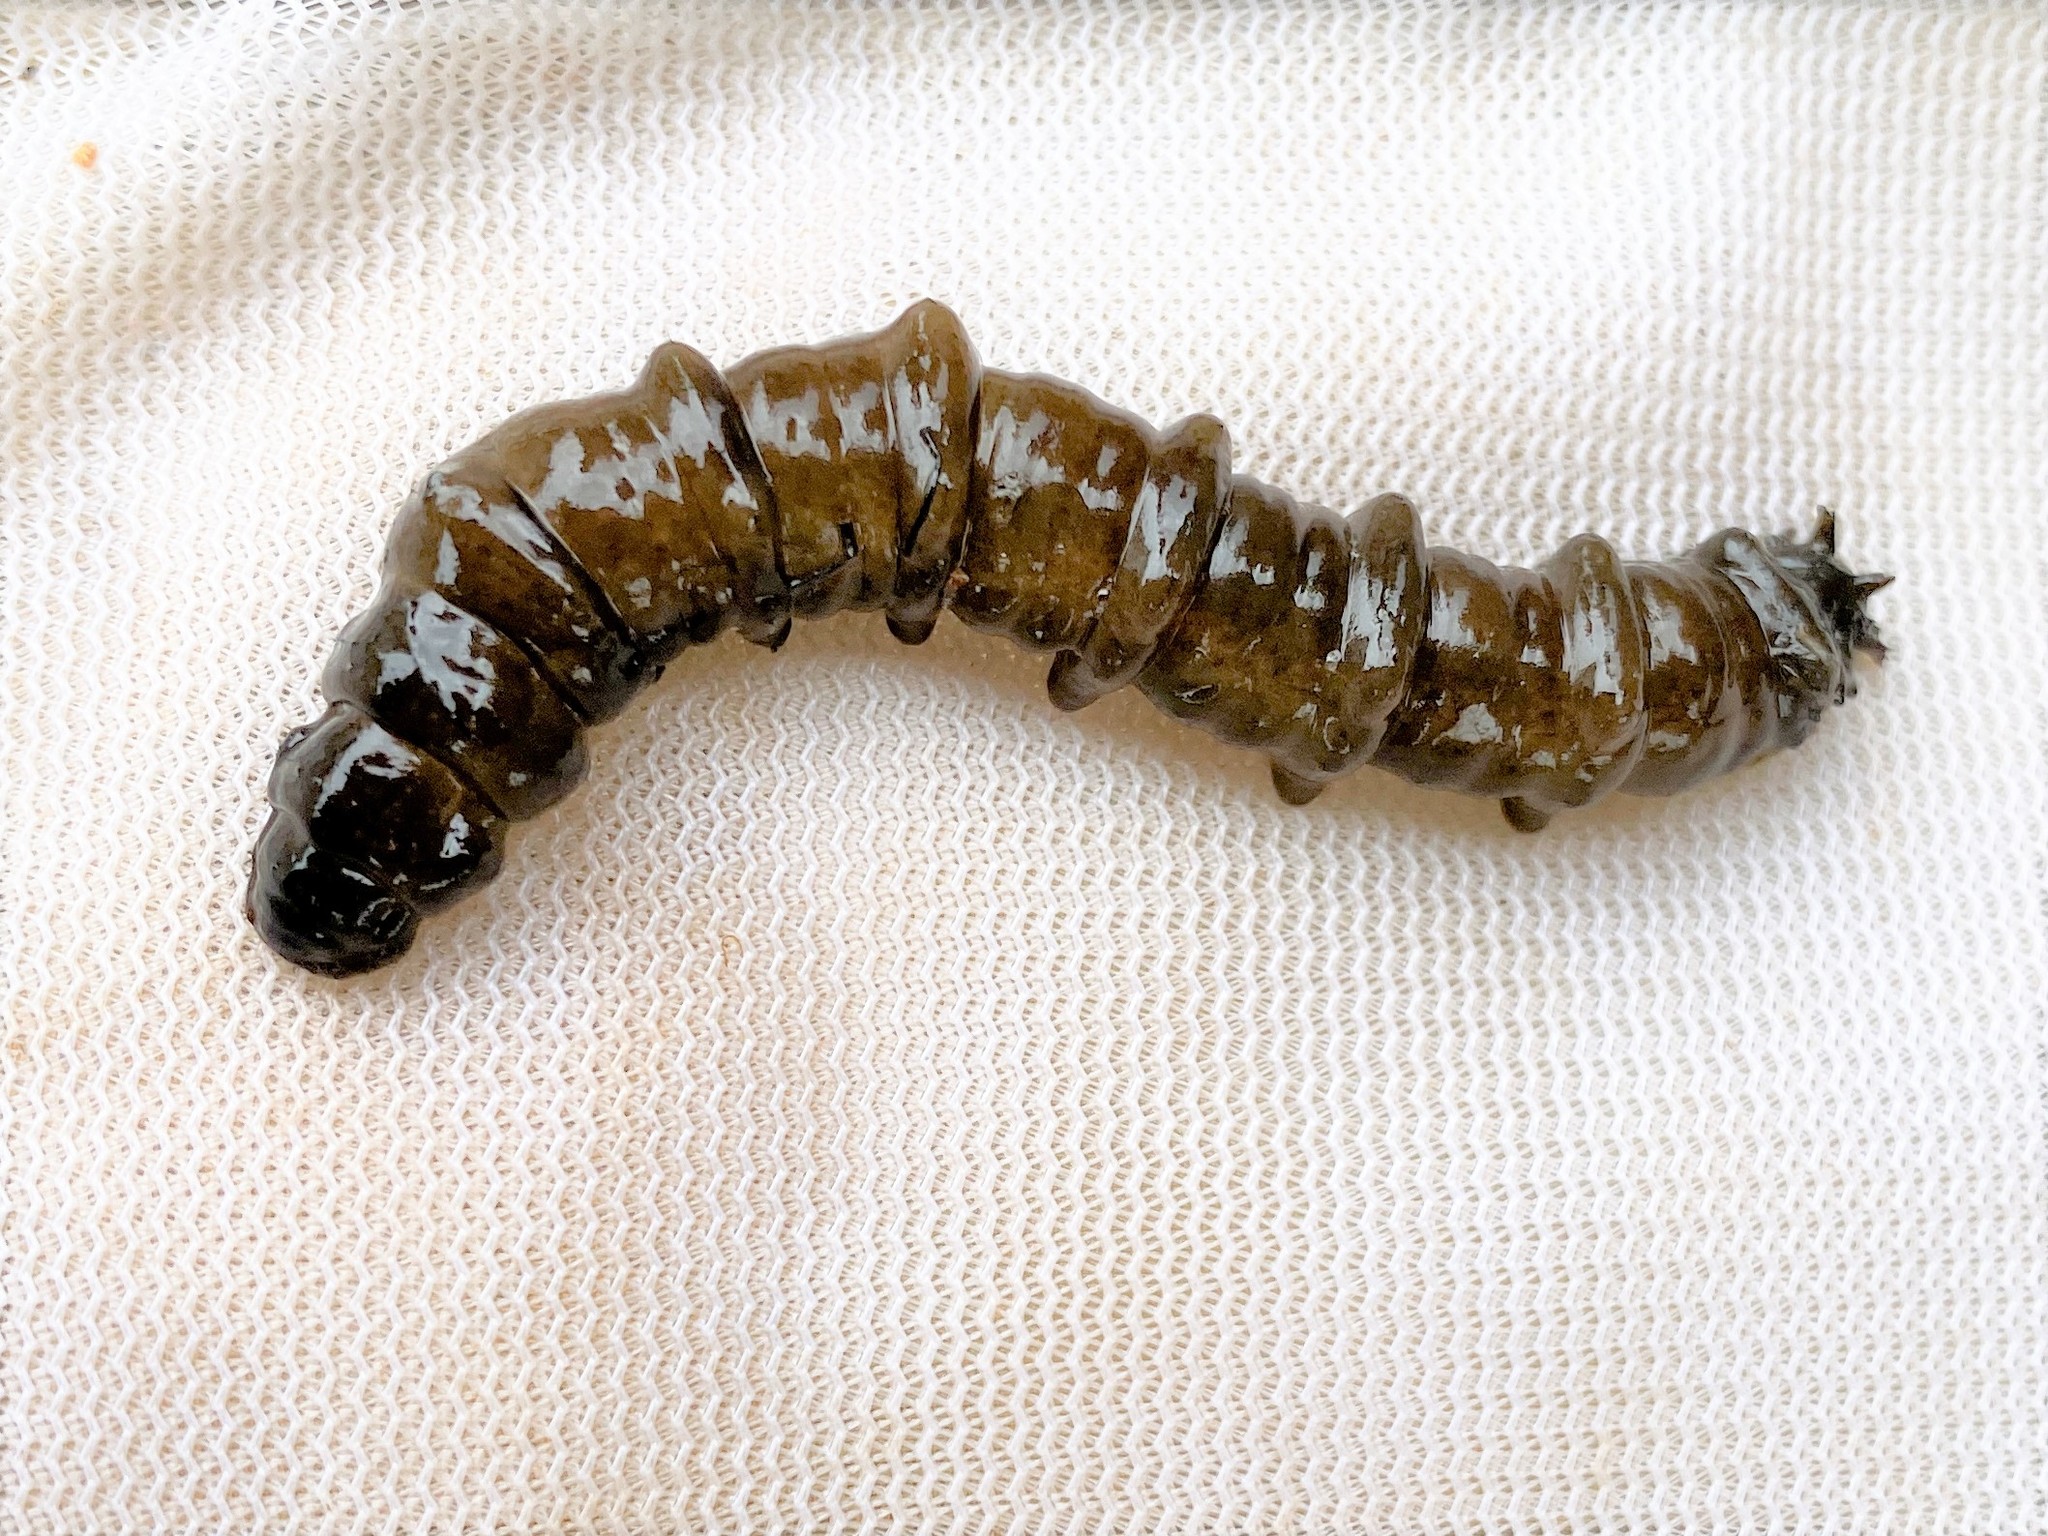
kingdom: Animalia
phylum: Arthropoda
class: Insecta
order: Diptera
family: Tipulidae
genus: Tipula
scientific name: Tipula abdominalis
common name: Giant crane fly
